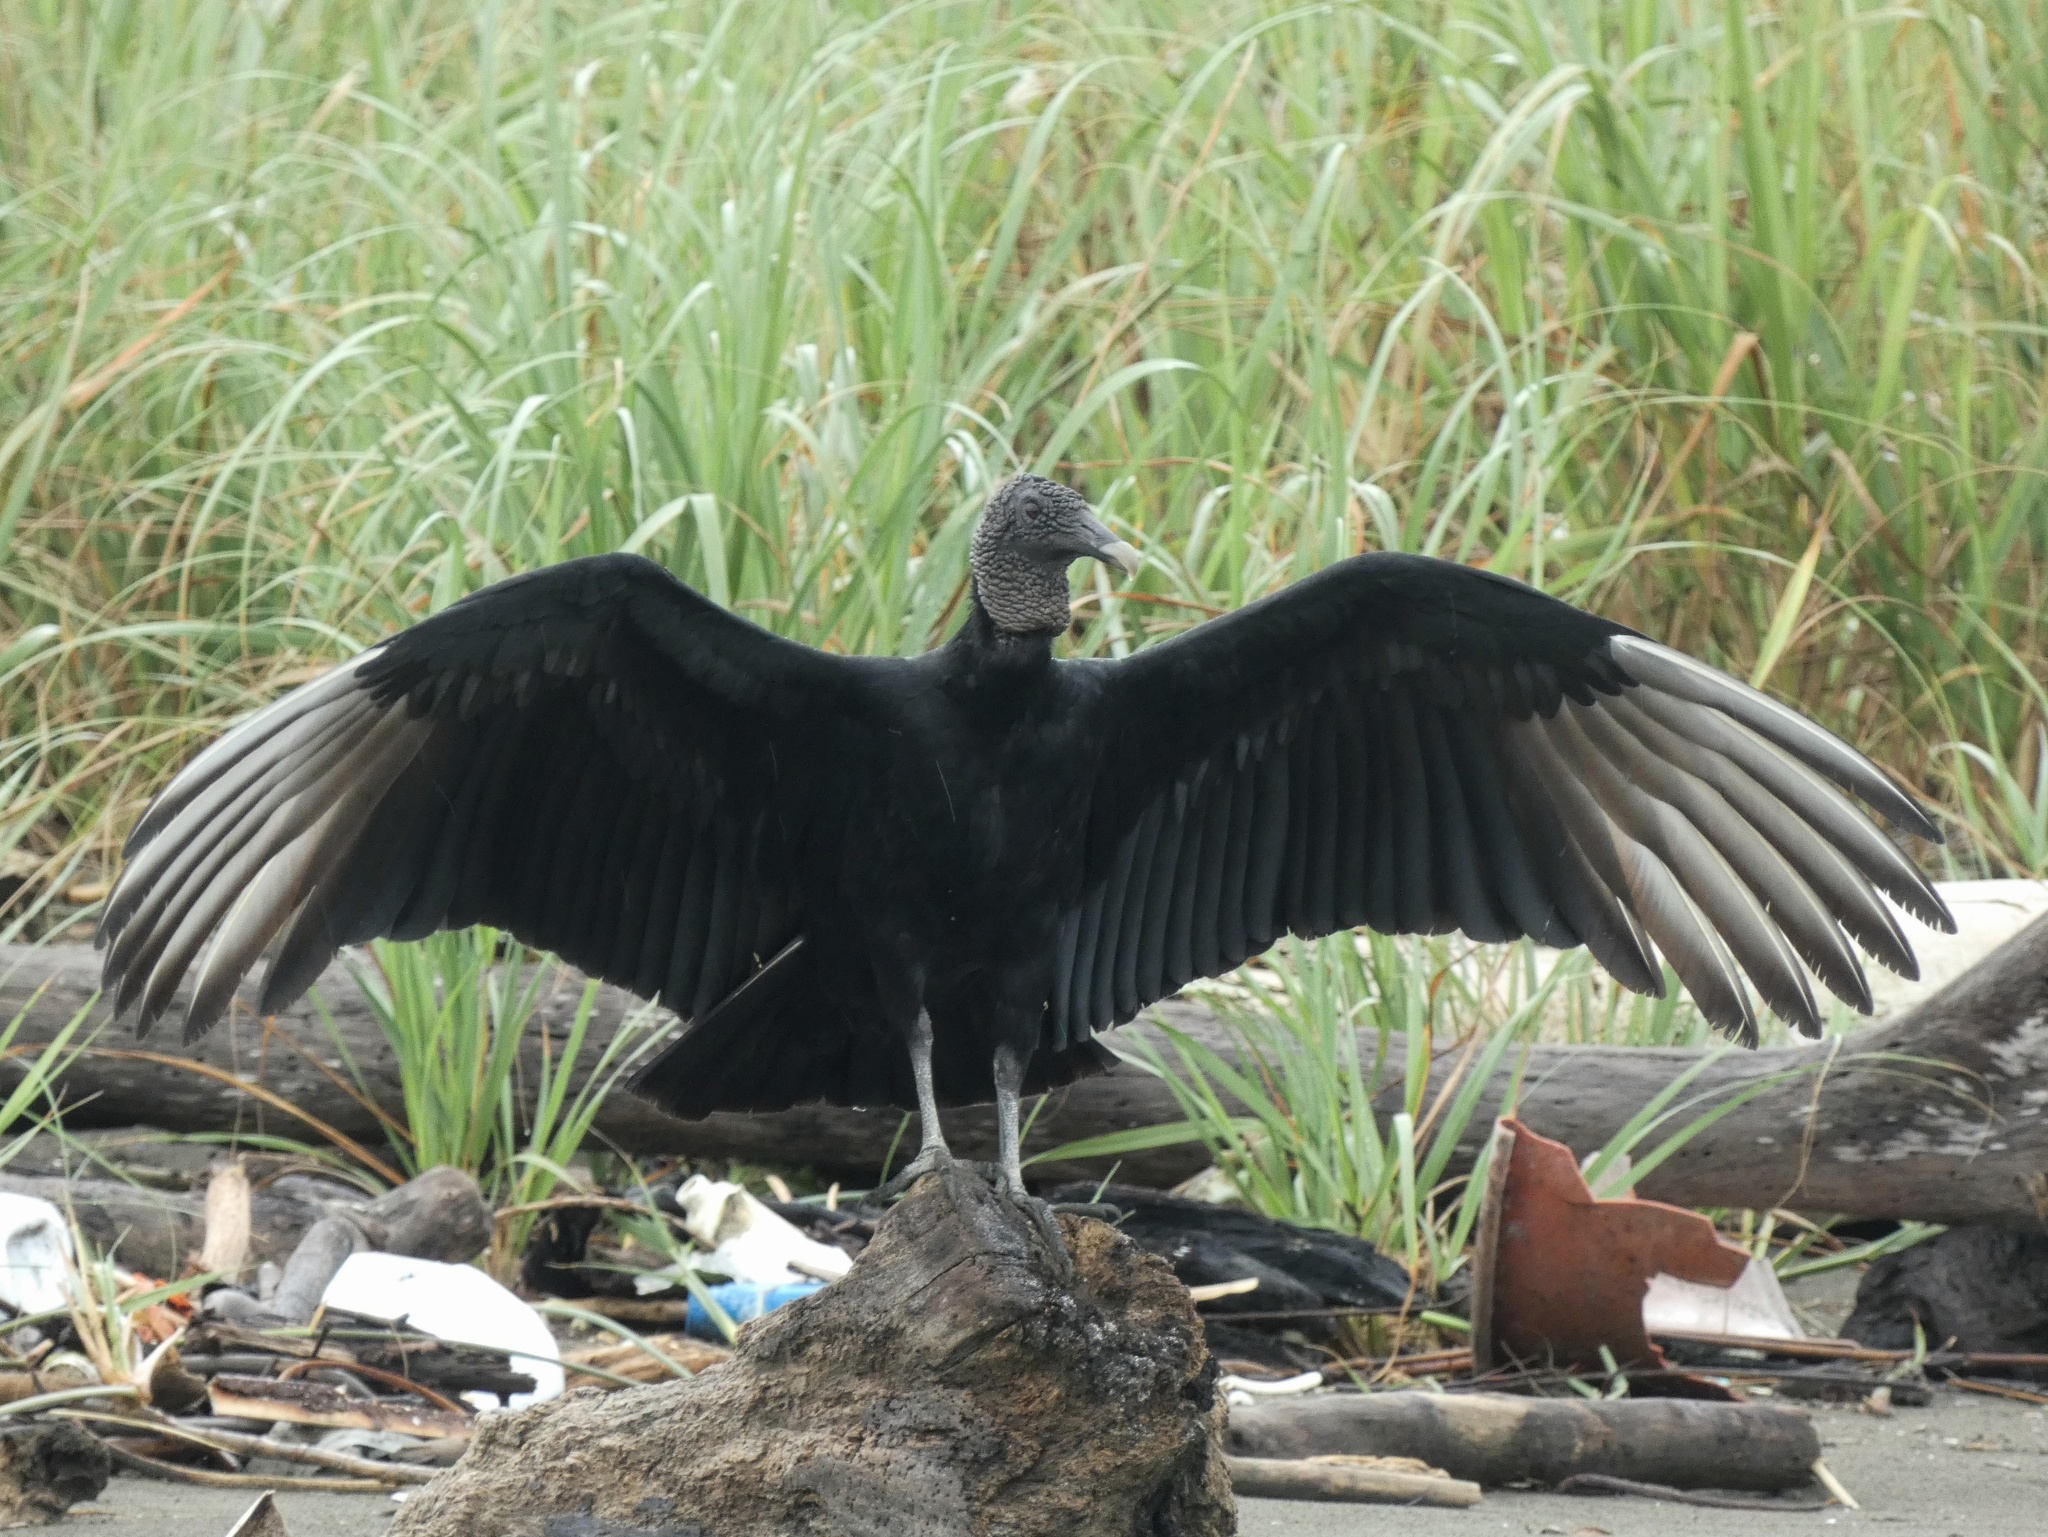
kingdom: Animalia
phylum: Chordata
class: Aves
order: Accipitriformes
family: Cathartidae
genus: Coragyps
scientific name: Coragyps atratus
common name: Black vulture
